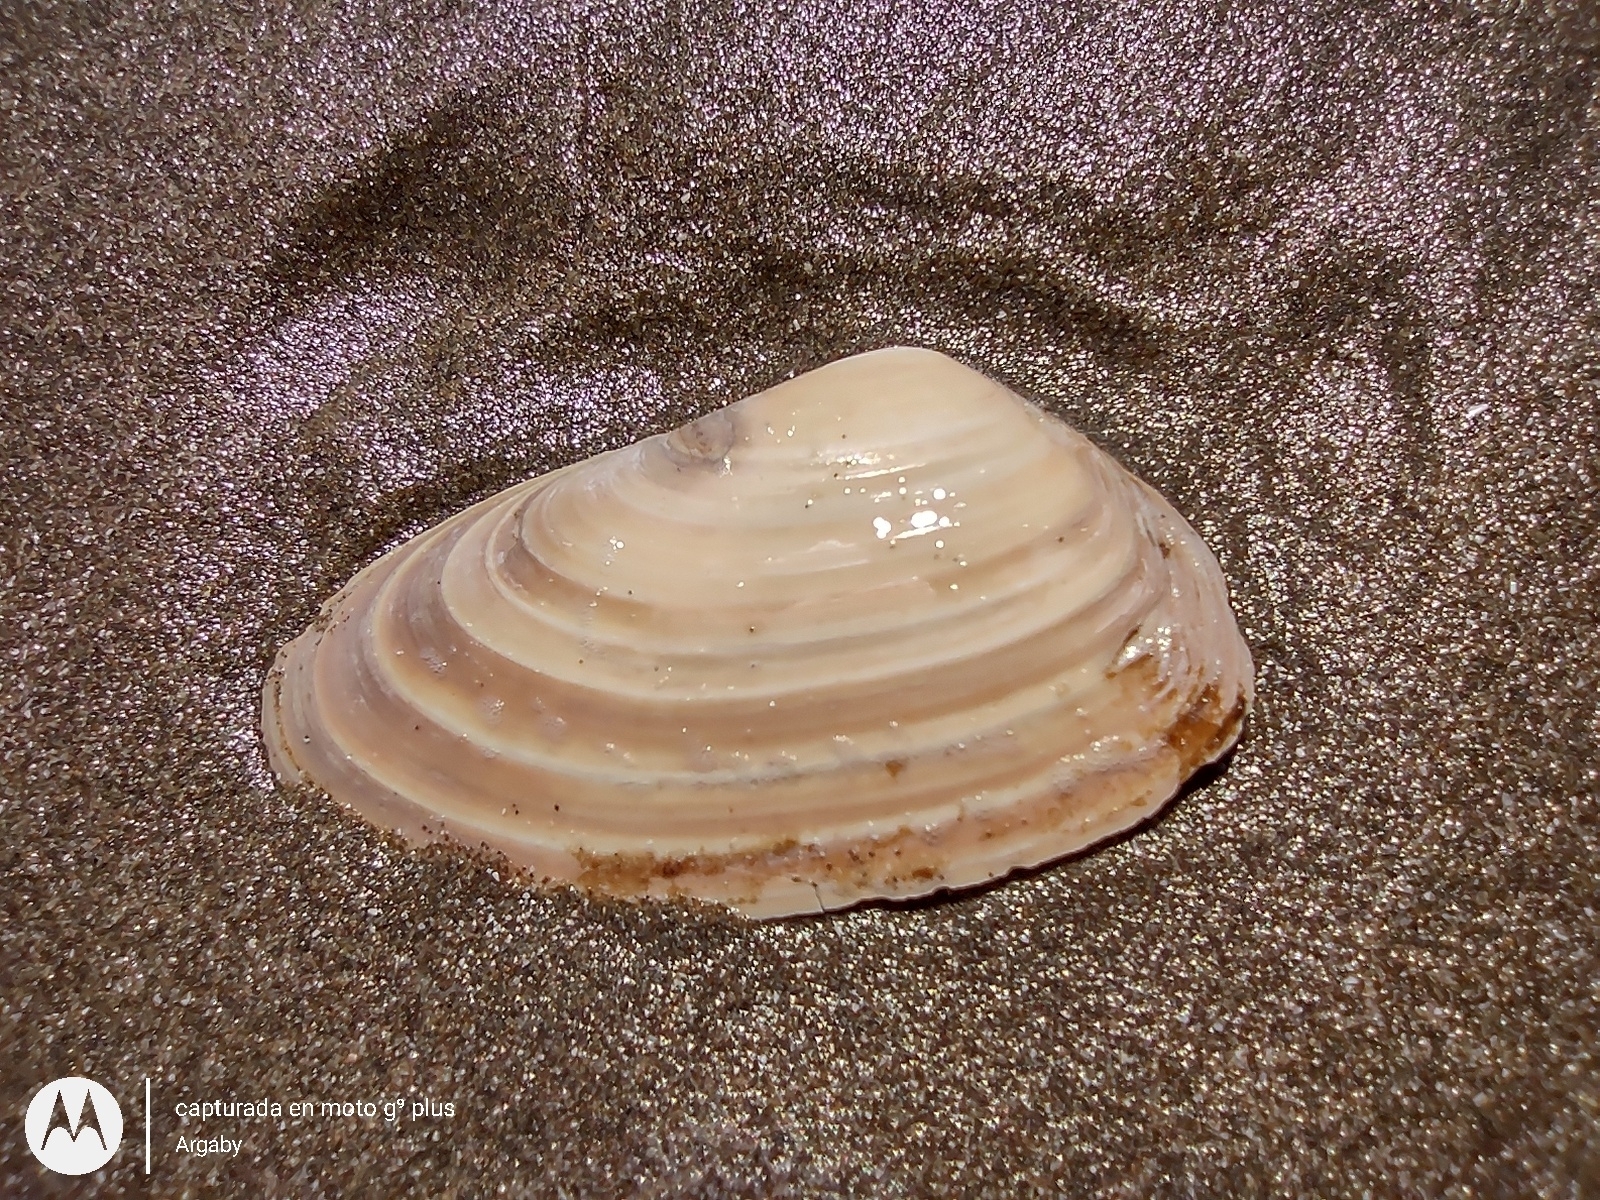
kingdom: Animalia
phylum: Mollusca
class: Bivalvia
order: Venerida
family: Mesodesmatidae
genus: Amarilladesma
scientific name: Amarilladesma mactroides
